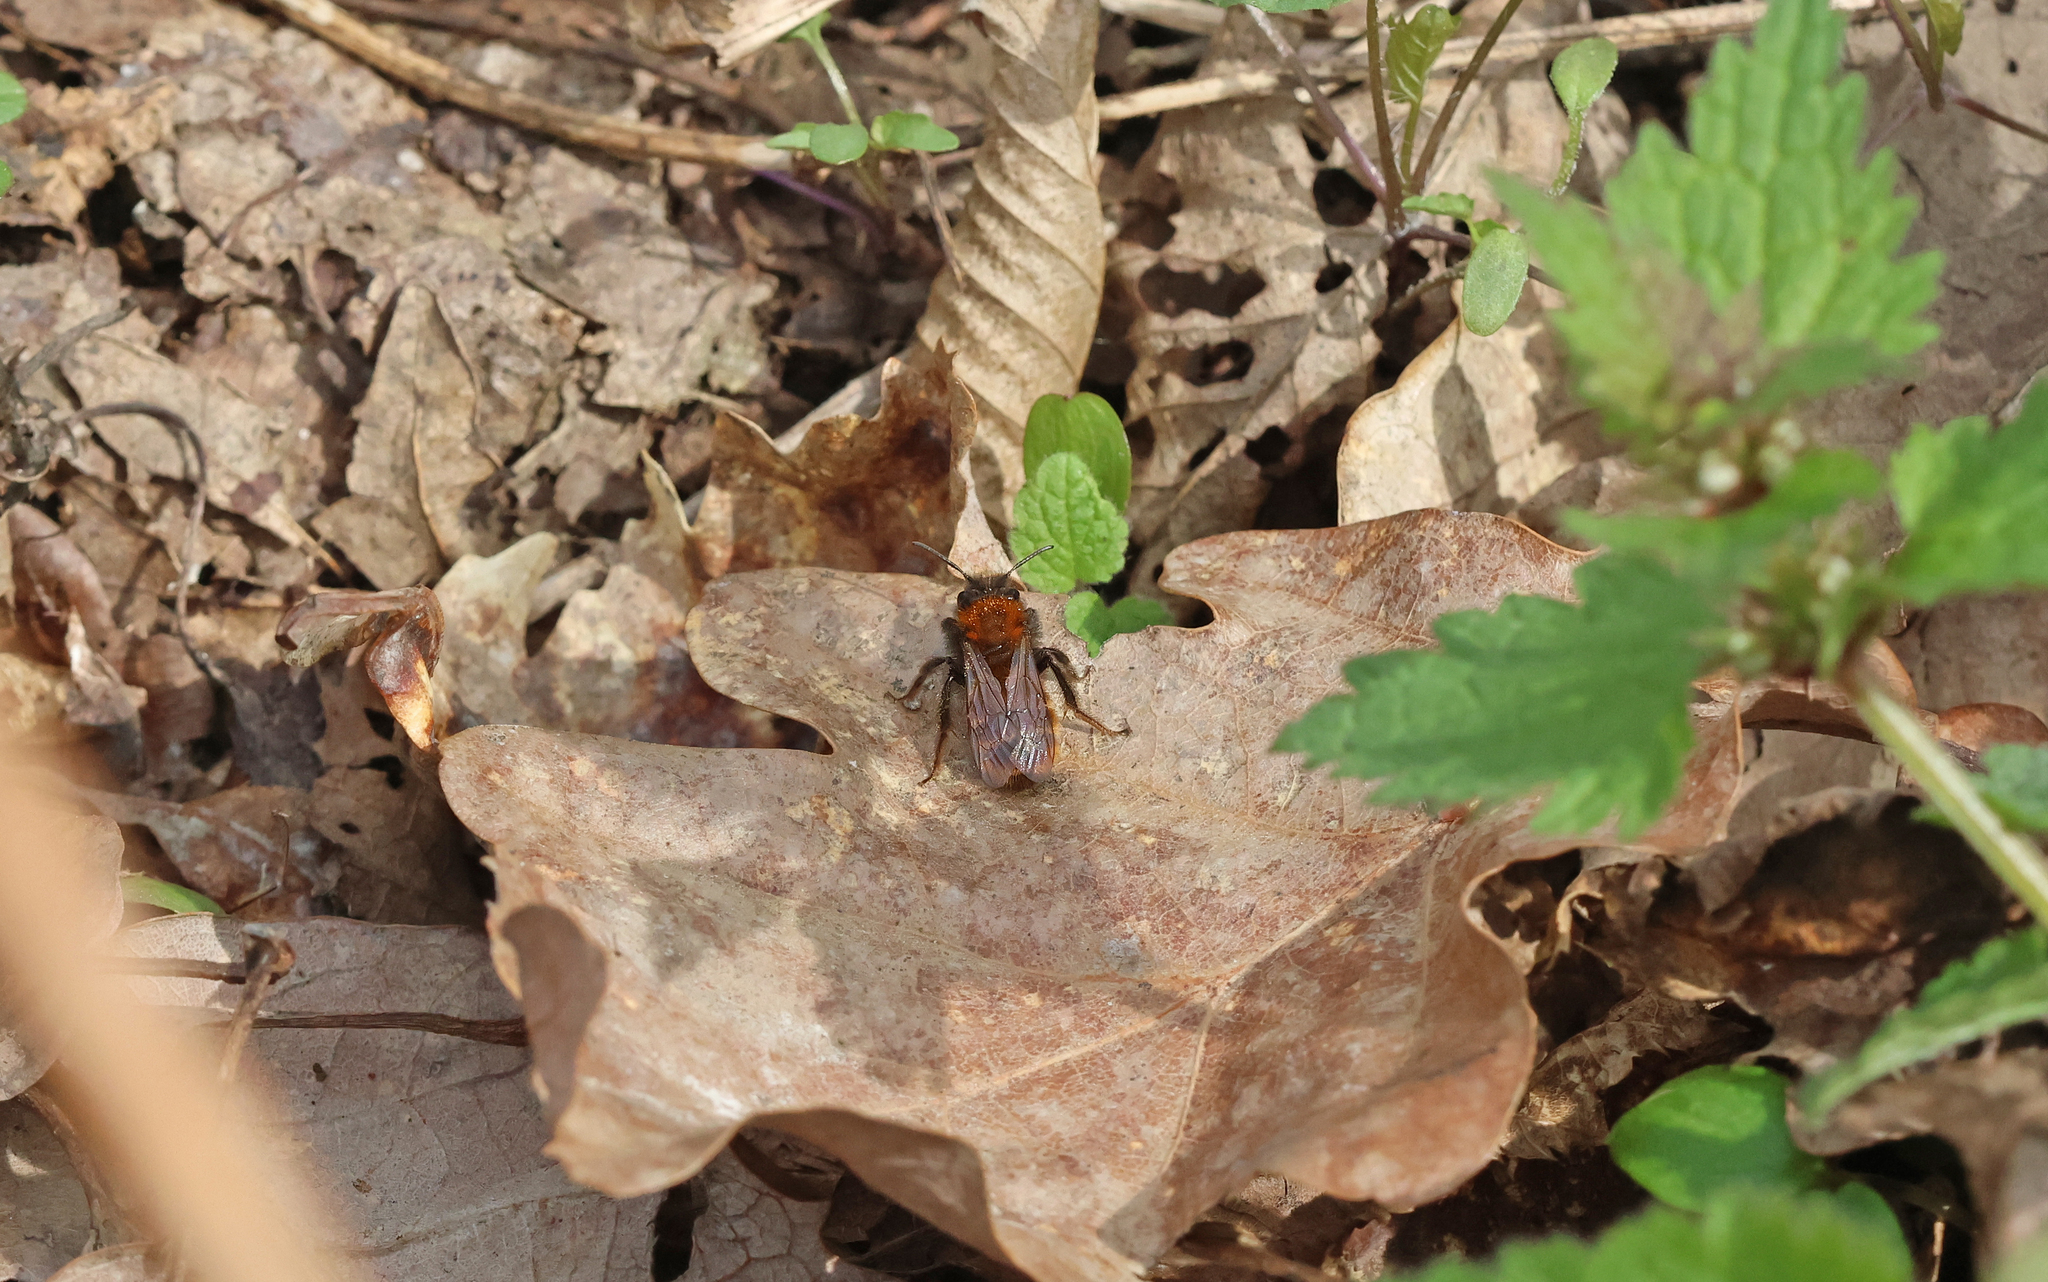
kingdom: Animalia
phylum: Arthropoda
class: Insecta
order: Hymenoptera
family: Andrenidae
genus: Andrena
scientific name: Andrena fulva
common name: Tawny mining bee
